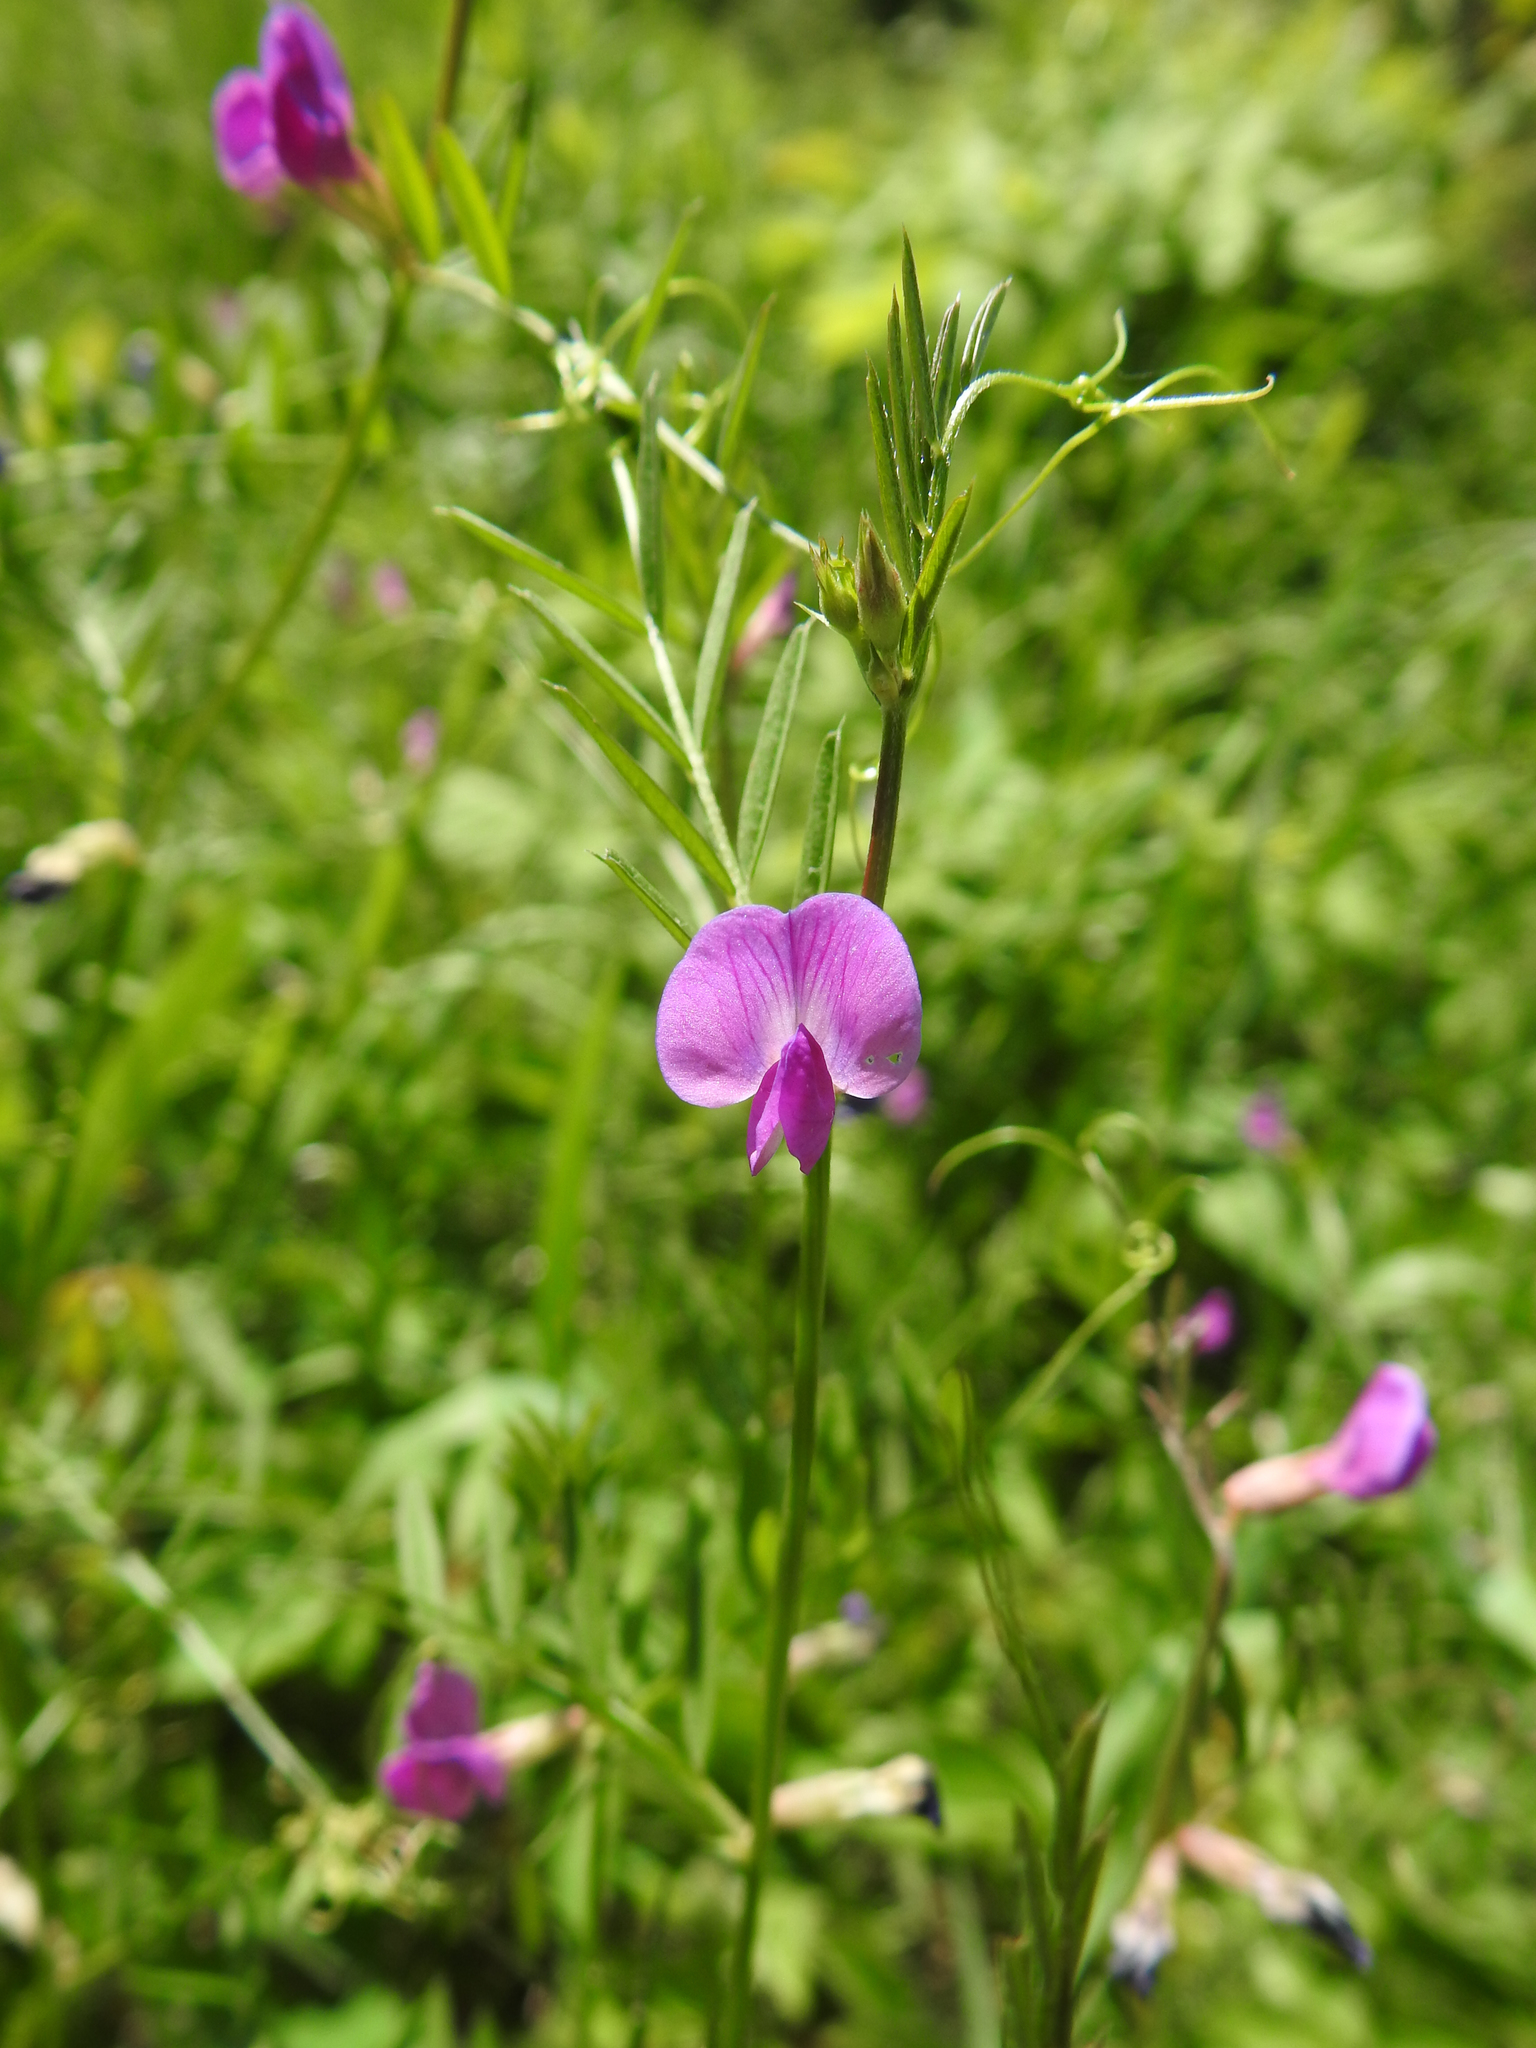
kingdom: Plantae
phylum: Tracheophyta
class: Magnoliopsida
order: Fabales
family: Fabaceae
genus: Vicia
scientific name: Vicia sativa
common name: Garden vetch
